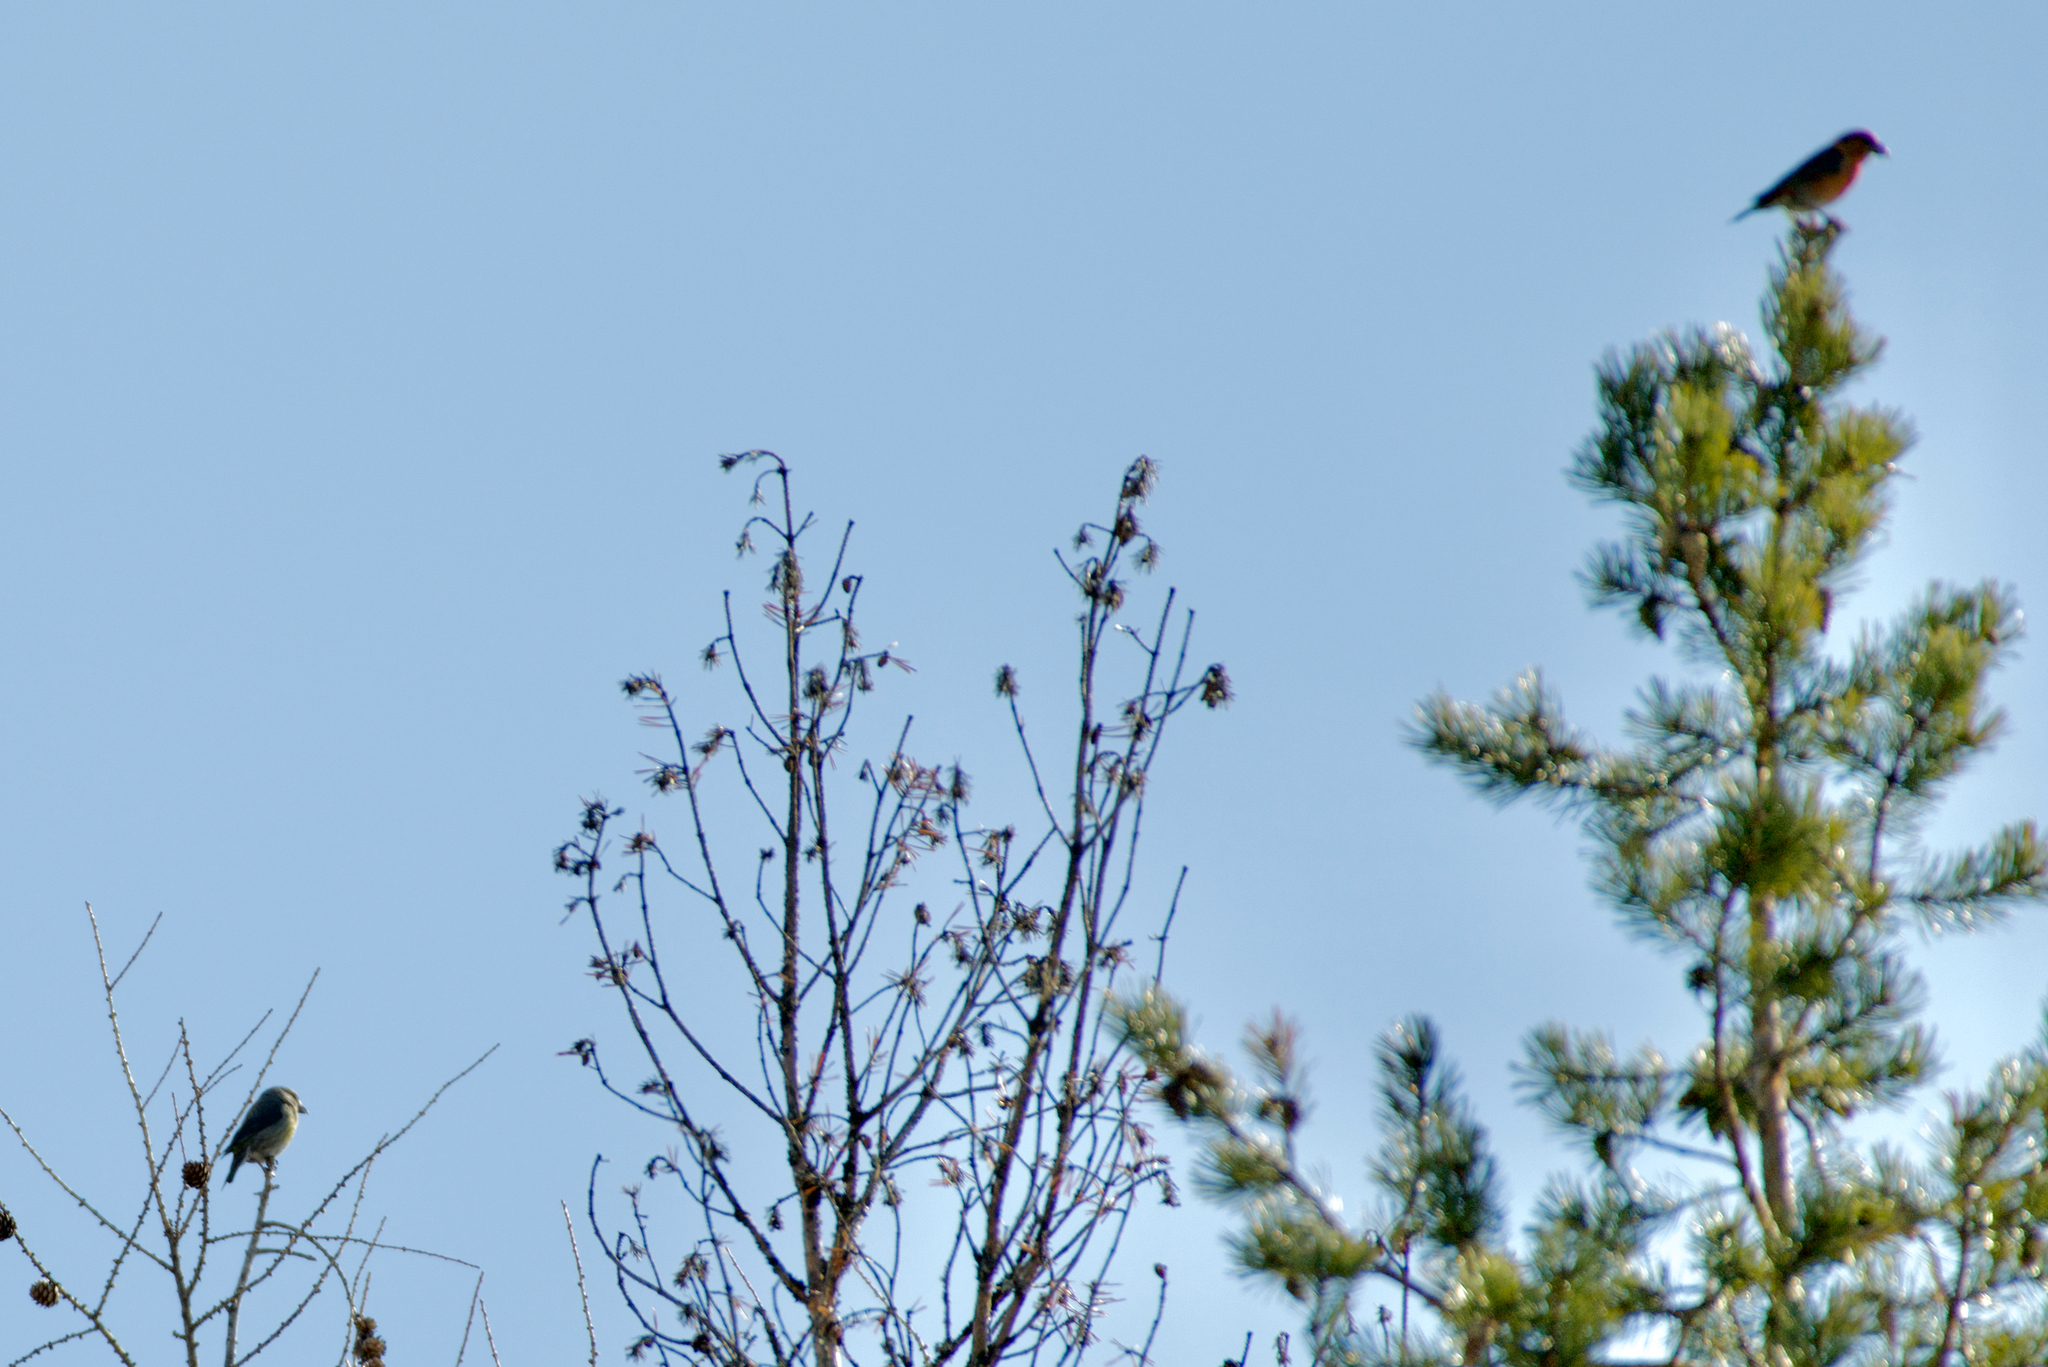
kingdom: Animalia
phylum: Chordata
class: Aves
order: Passeriformes
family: Fringillidae
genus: Loxia
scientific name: Loxia curvirostra
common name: Red crossbill
